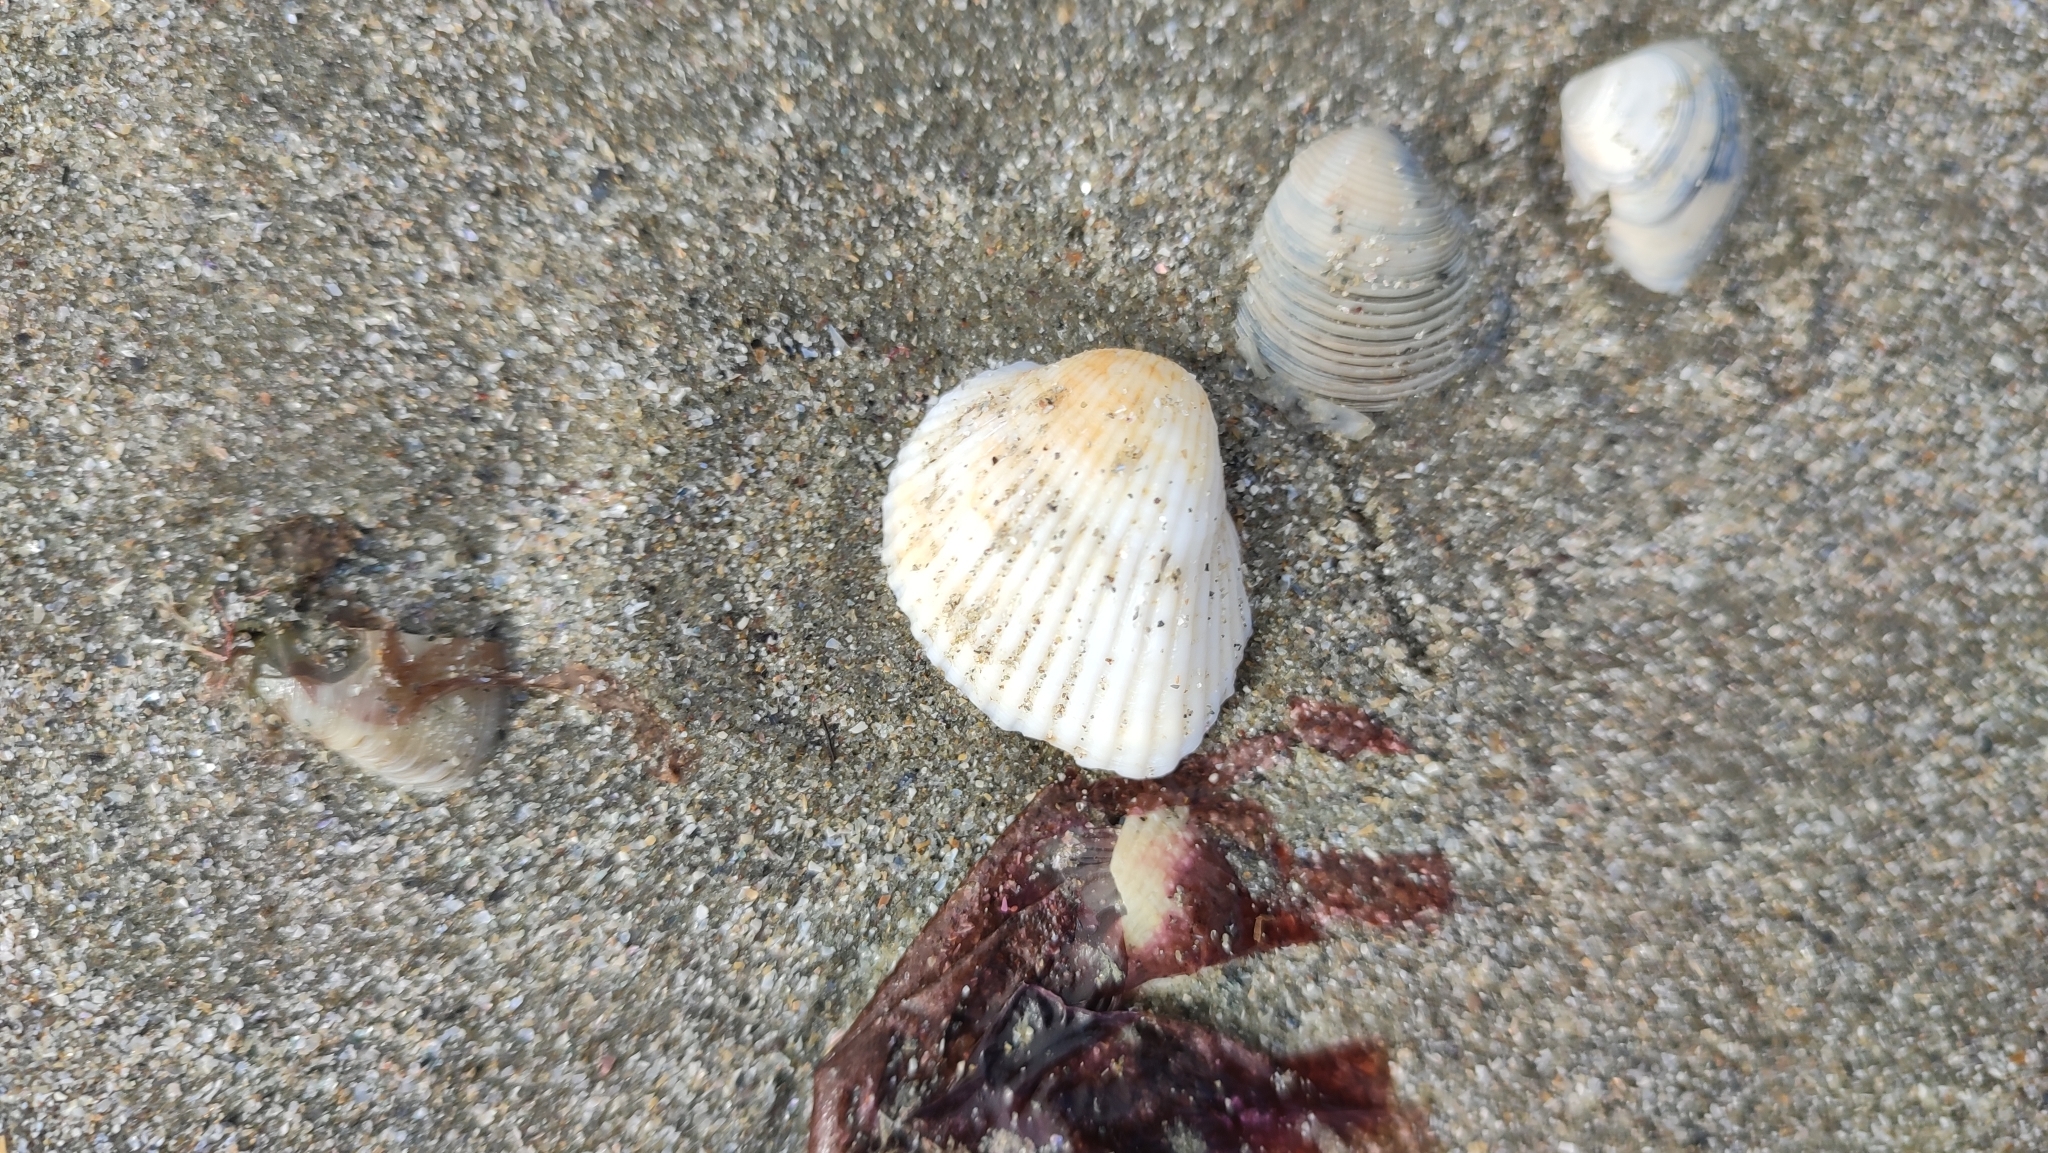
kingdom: Animalia
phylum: Mollusca
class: Bivalvia
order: Arcida
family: Arcidae
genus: Anadara
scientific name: Anadara kagoshimensis
